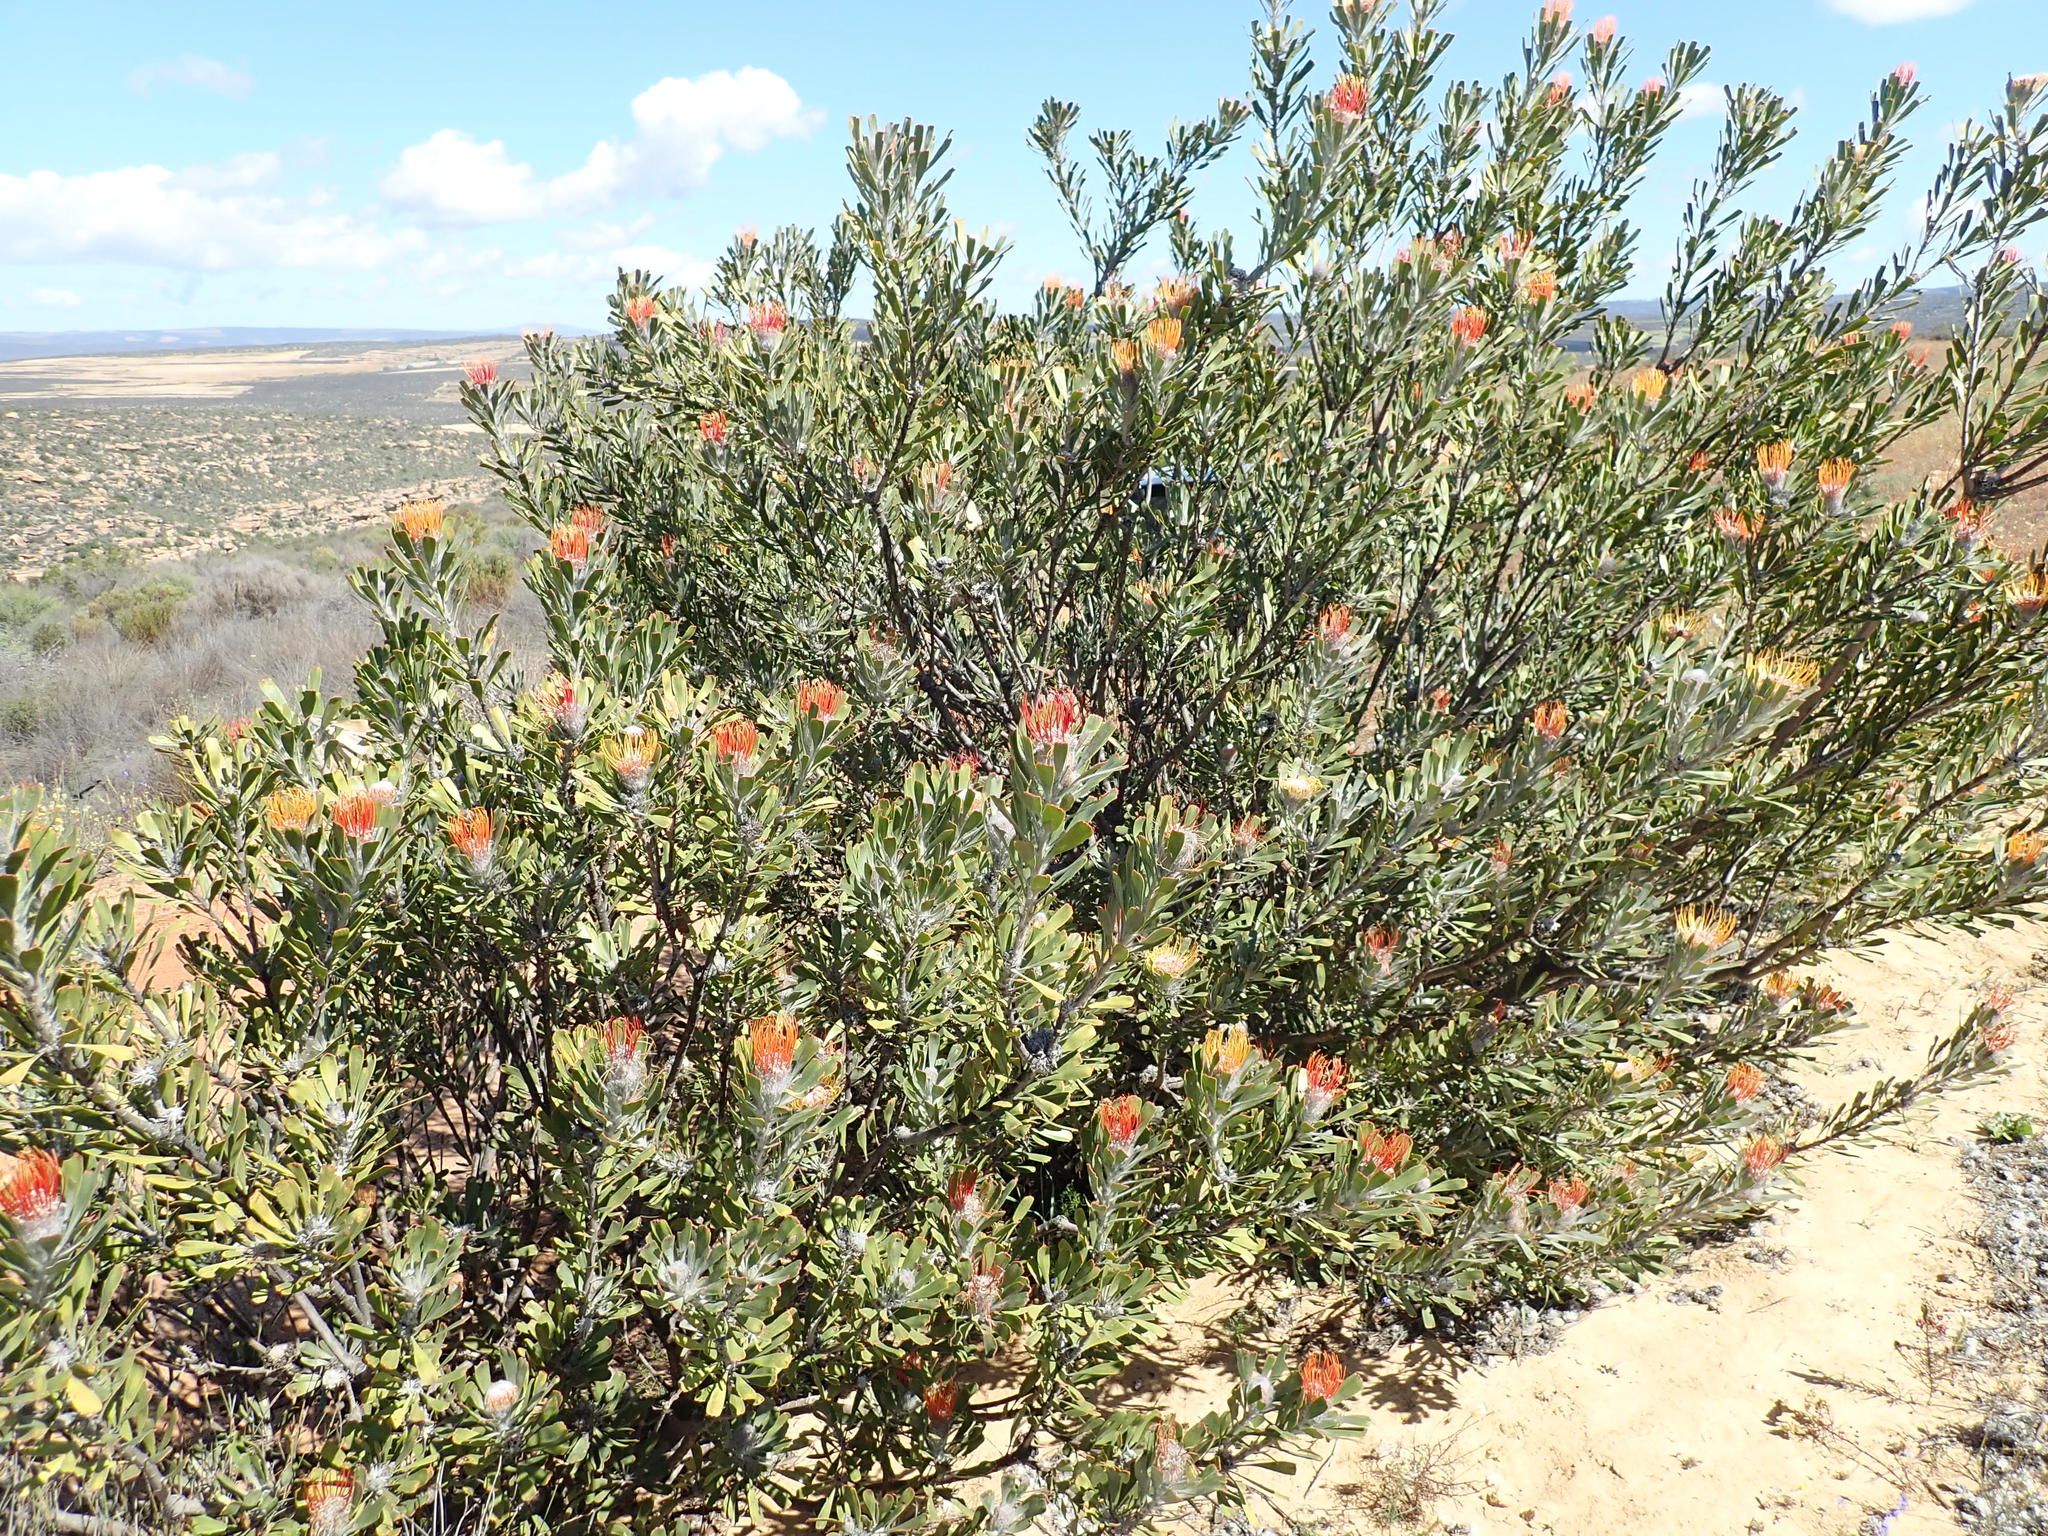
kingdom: Plantae
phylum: Tracheophyta
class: Magnoliopsida
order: Proteales
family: Proteaceae
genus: Leucospermum
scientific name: Leucospermum praemorsum
